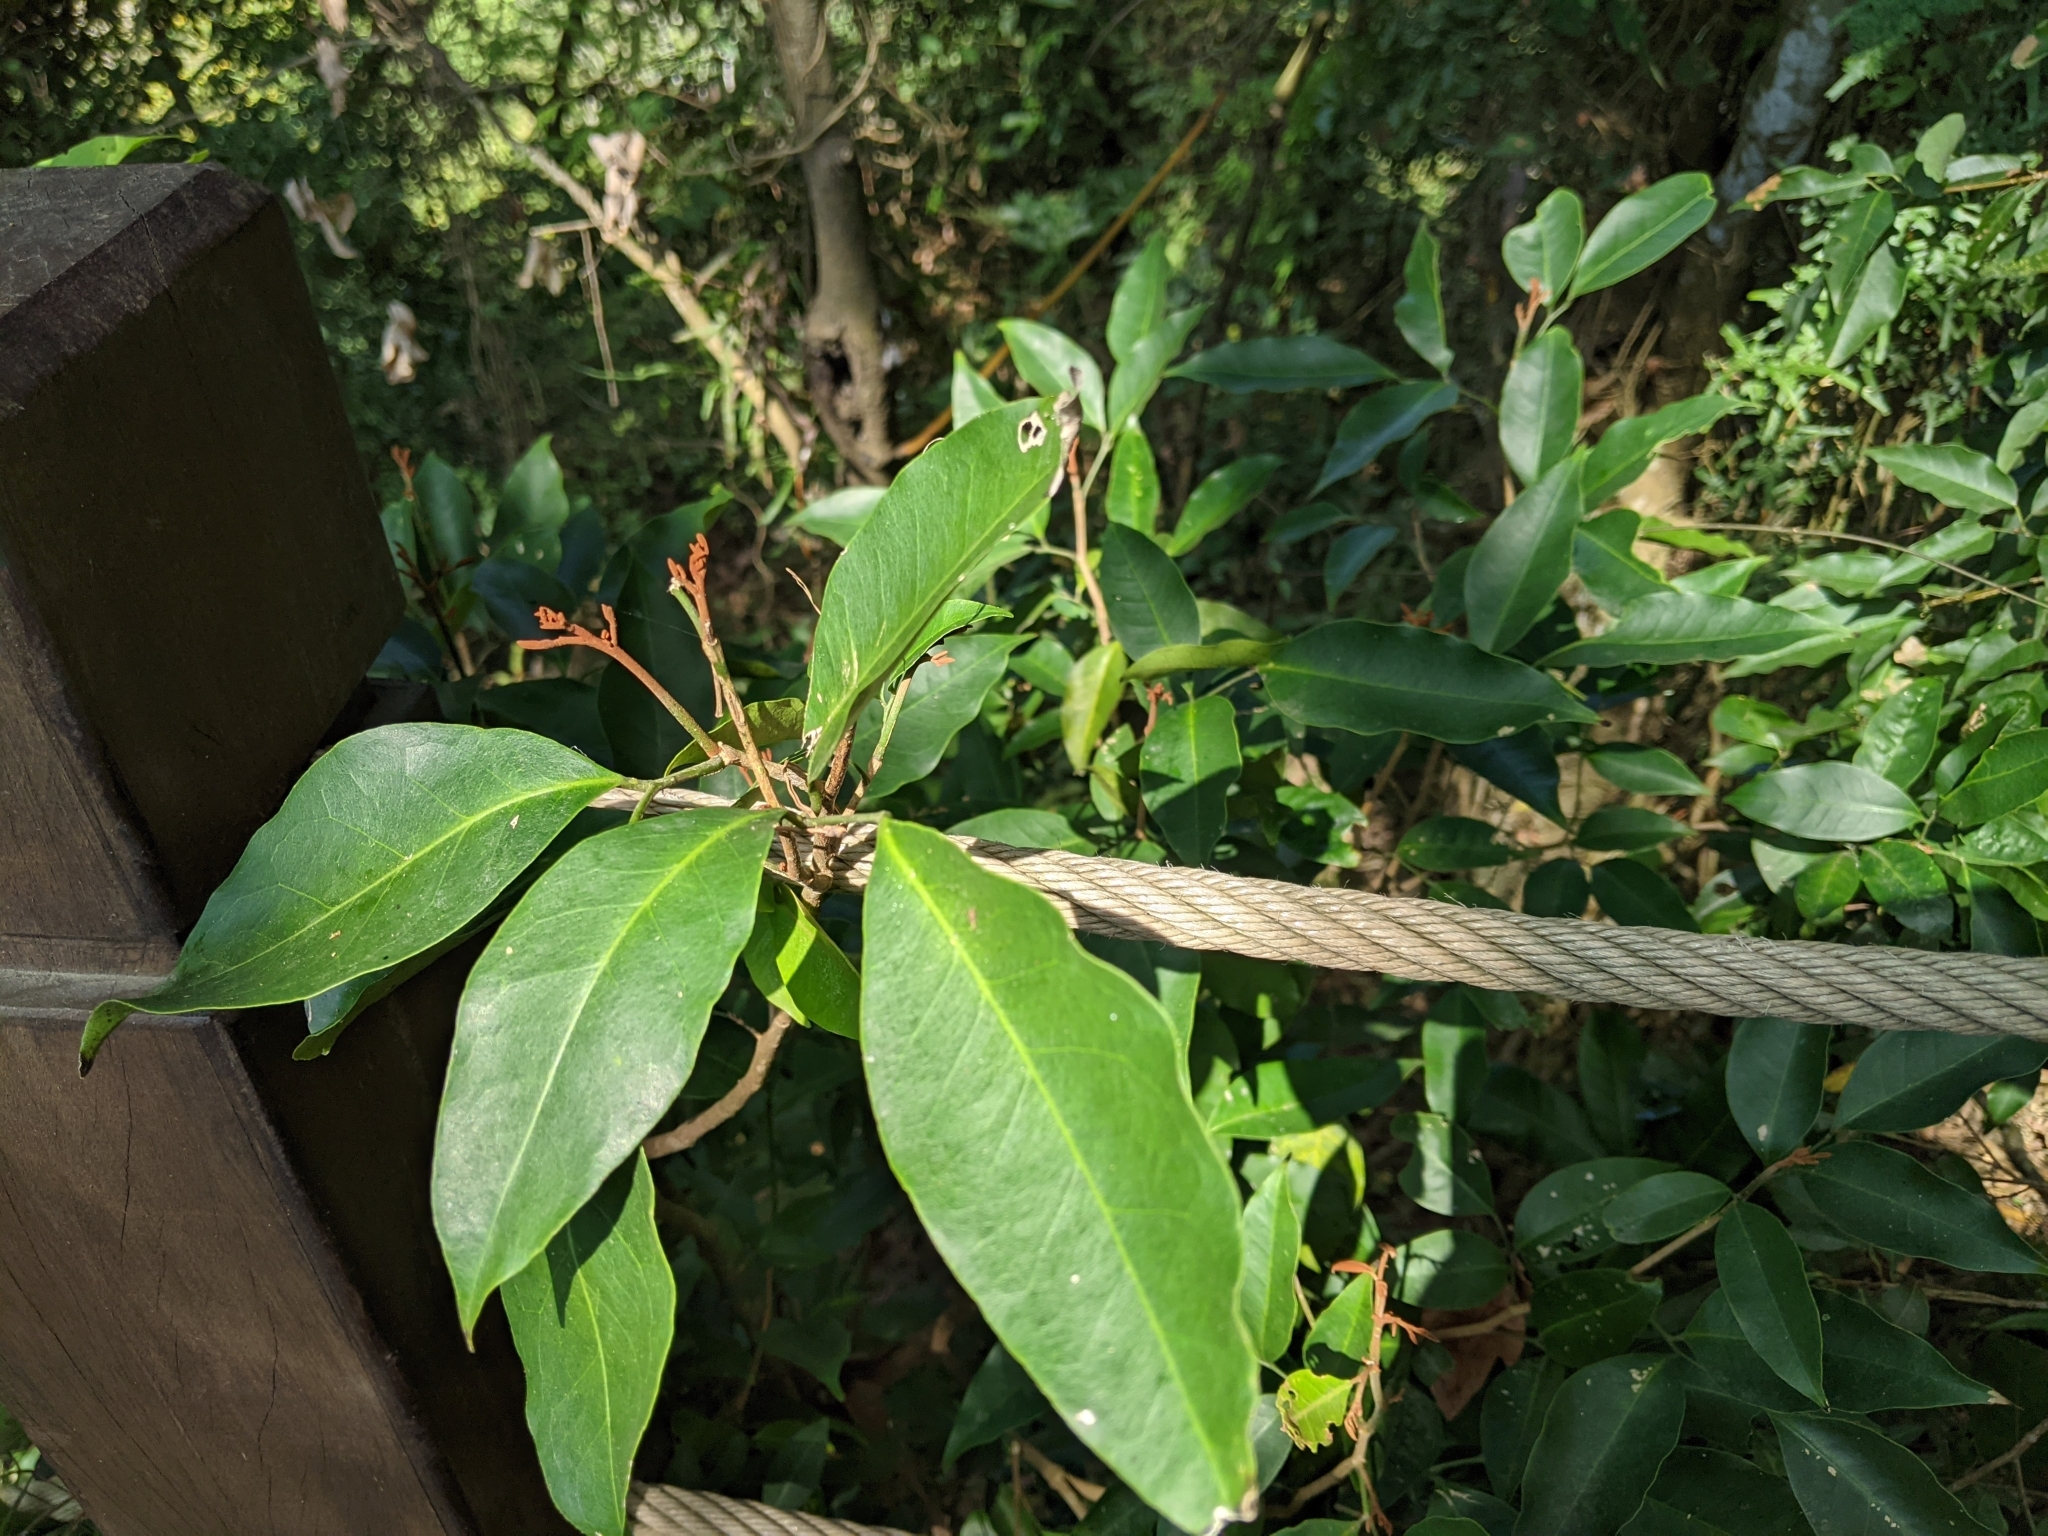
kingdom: Plantae
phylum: Tracheophyta
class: Magnoliopsida
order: Sapindales
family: Rutaceae
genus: Glycosmis
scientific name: Glycosmis parviflora
